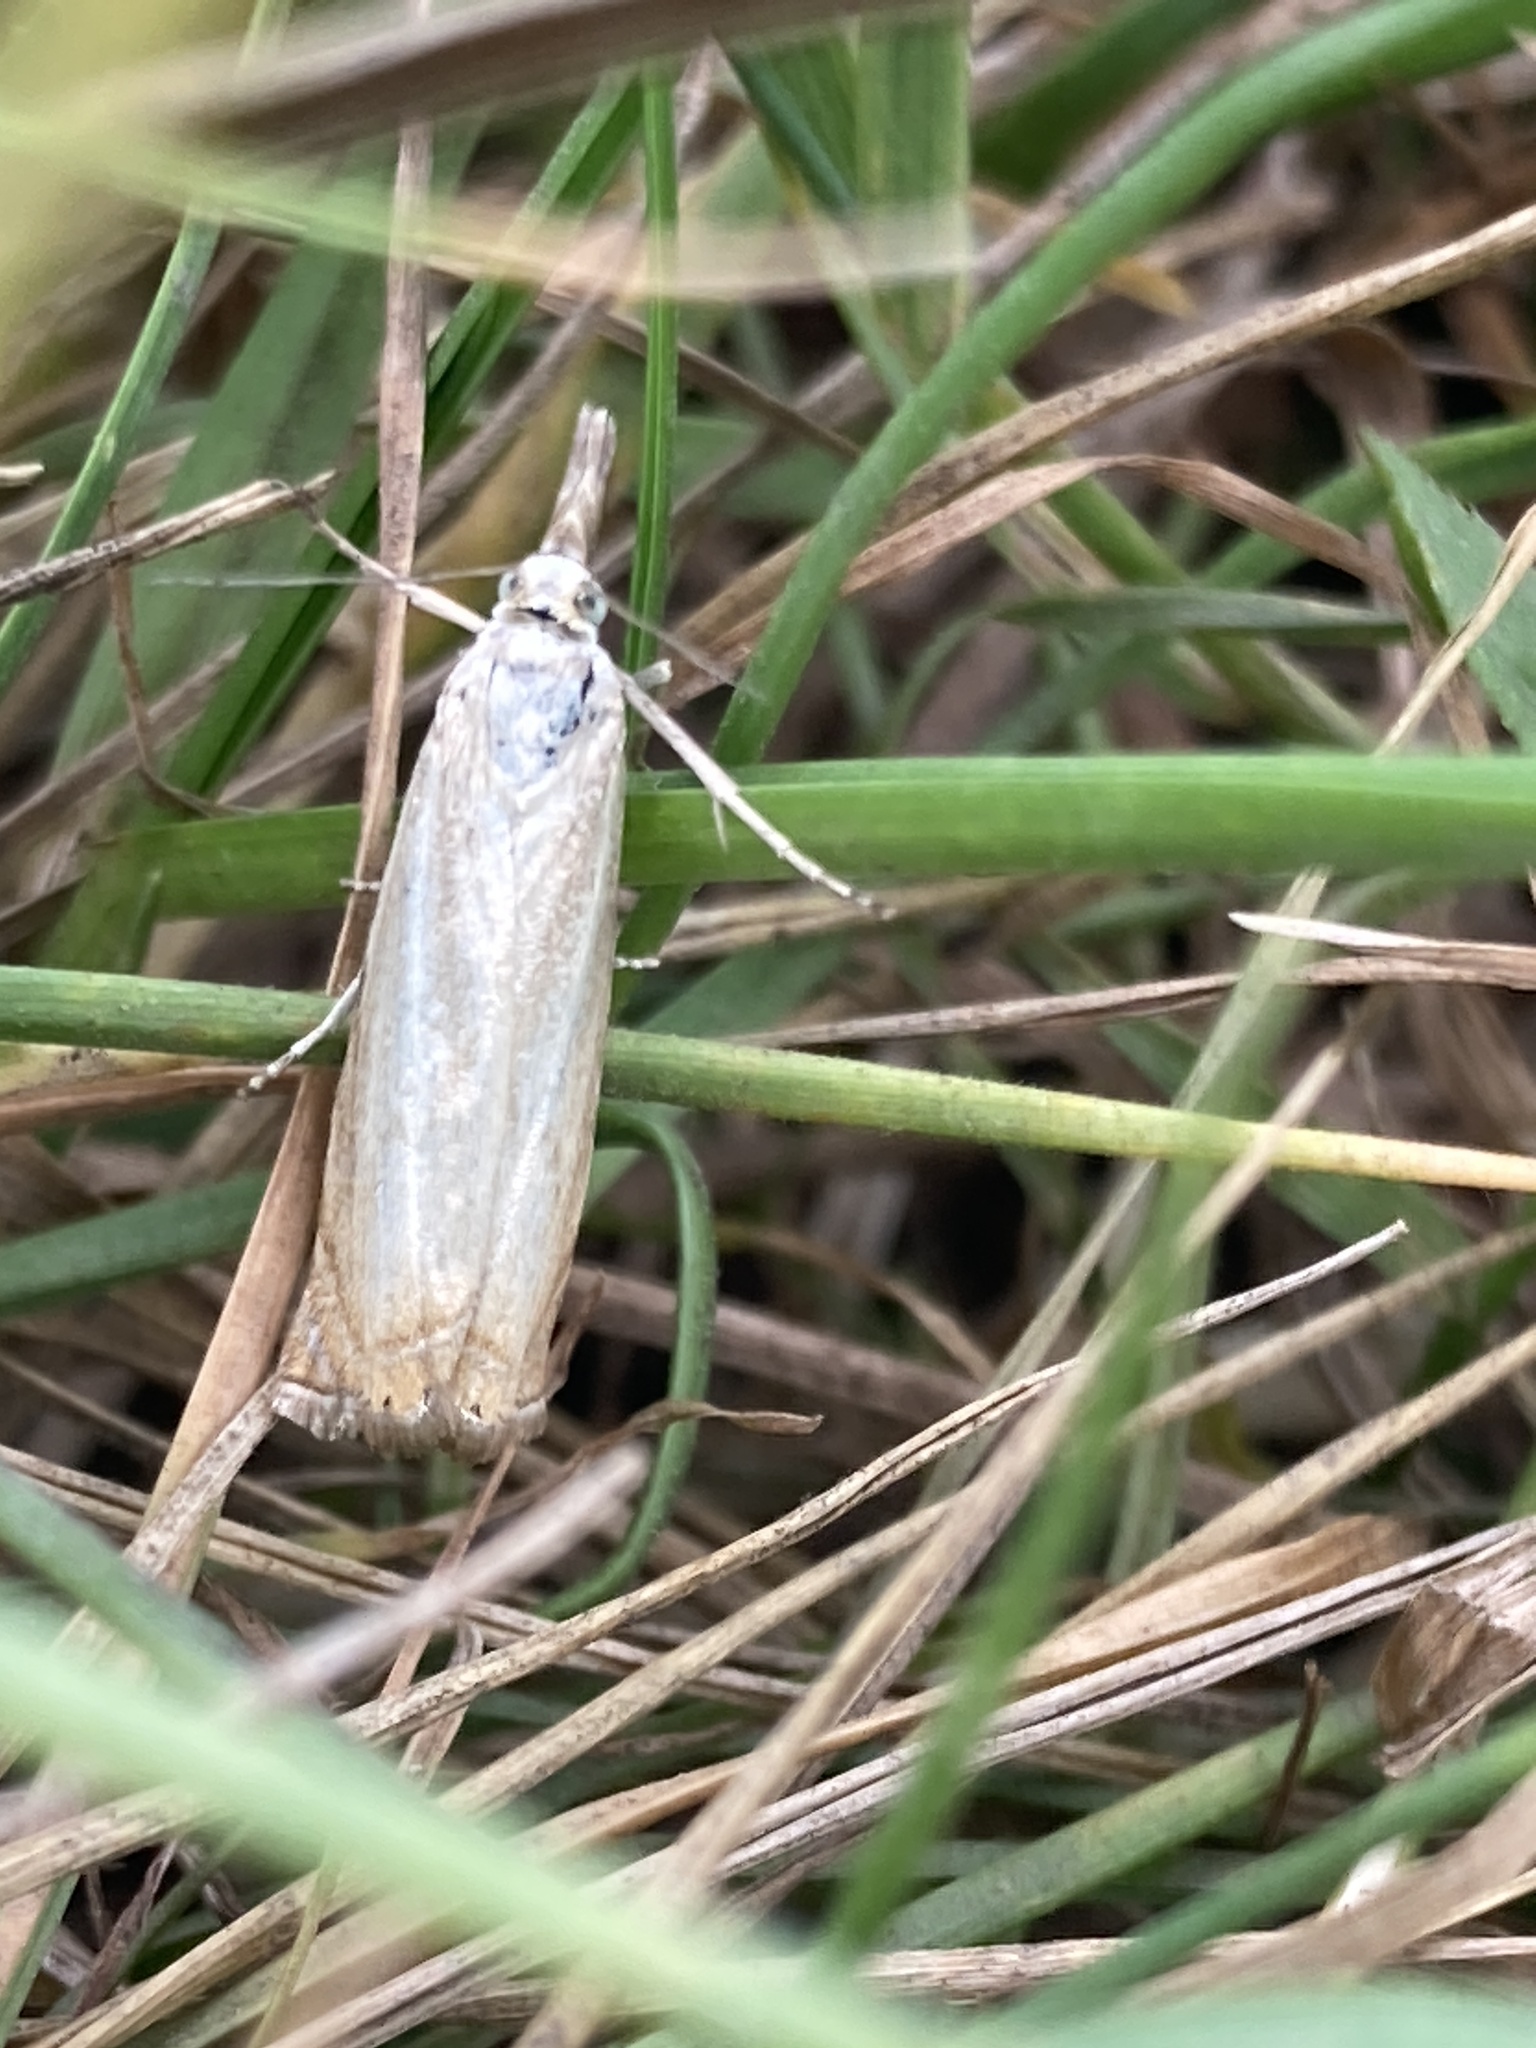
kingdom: Animalia
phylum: Arthropoda
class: Insecta
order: Lepidoptera
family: Crambidae
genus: Chrysoteuchia
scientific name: Chrysoteuchia culmella
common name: Garden grass-veneer
